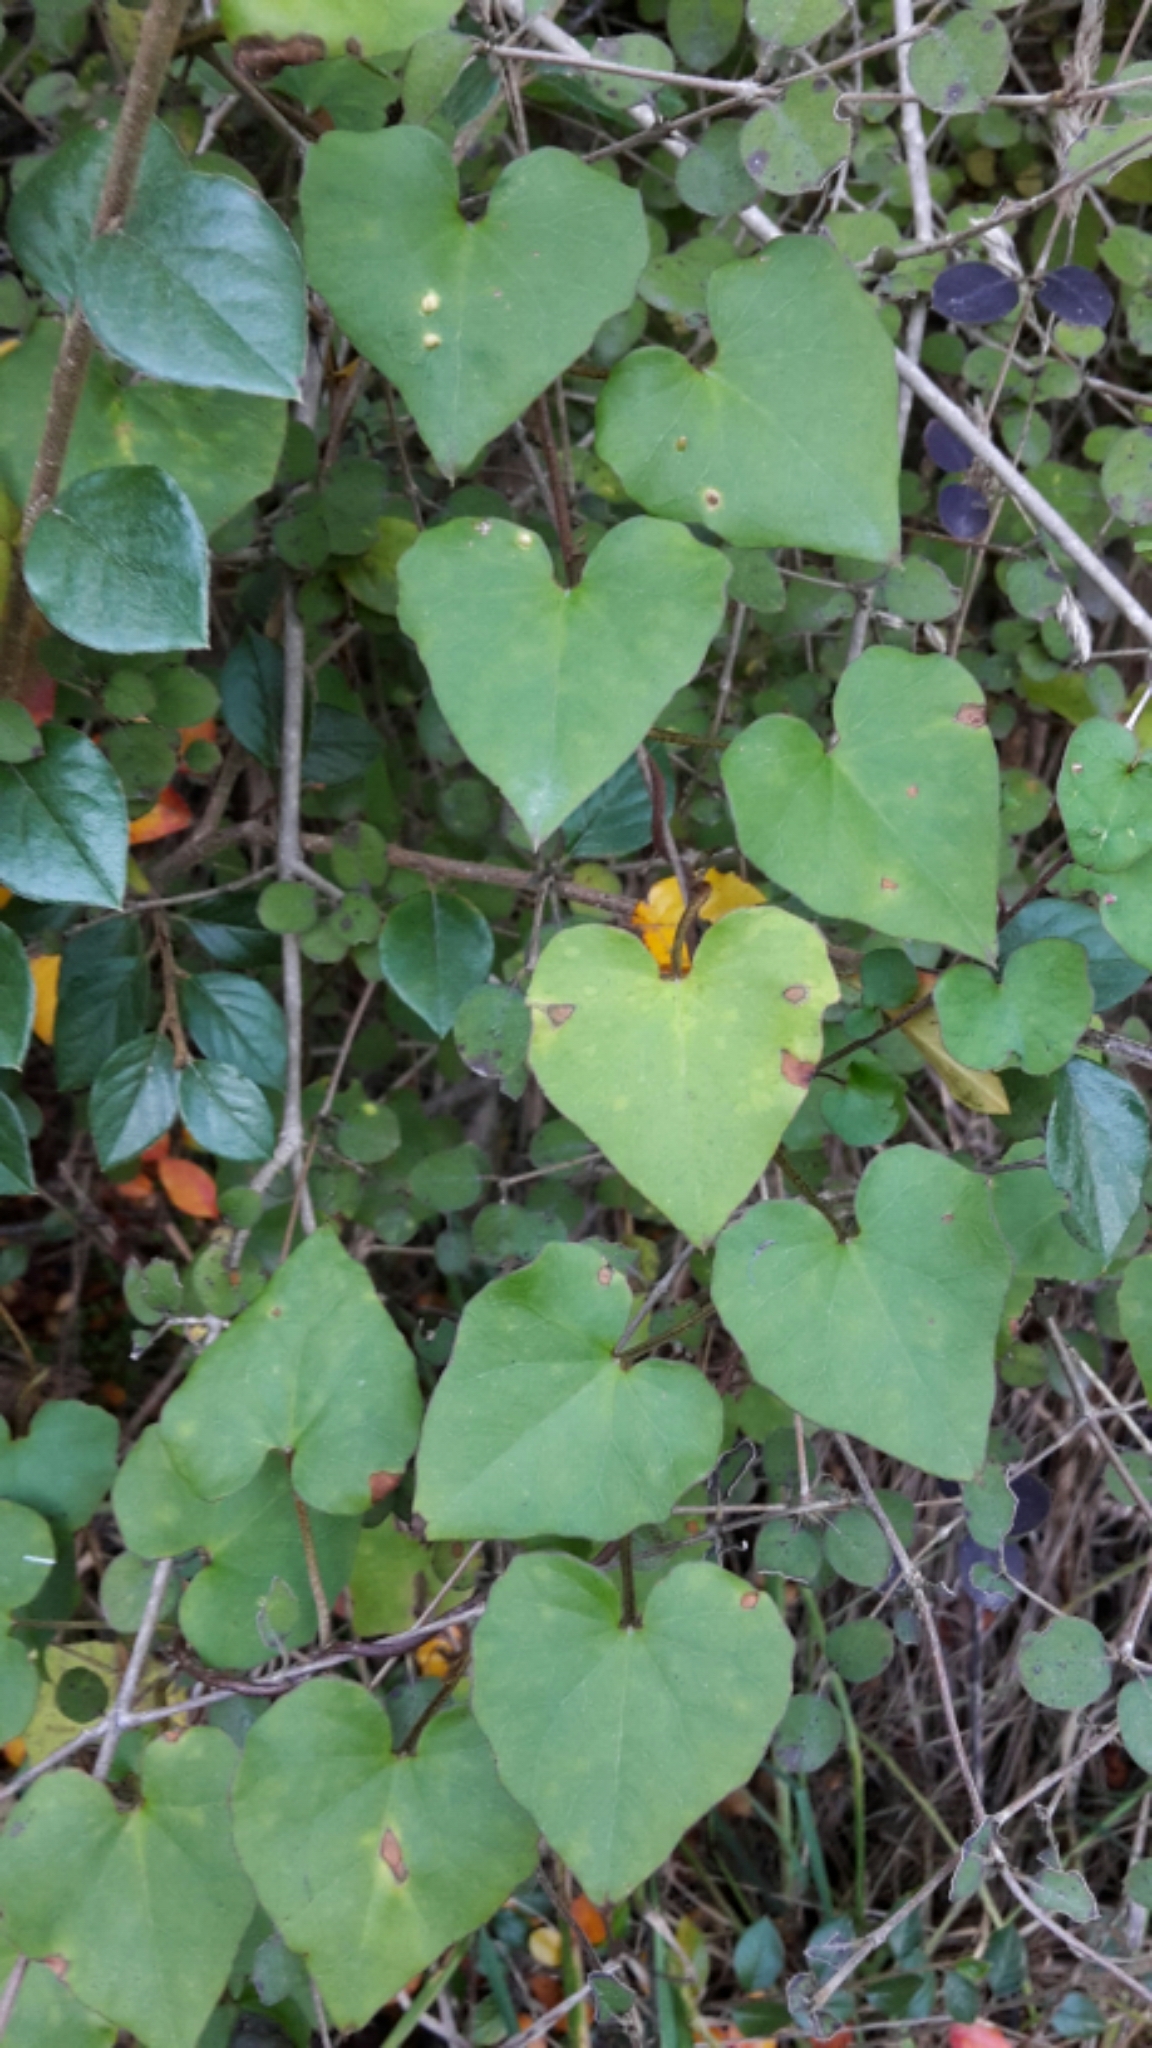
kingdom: Plantae
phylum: Tracheophyta
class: Magnoliopsida
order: Solanales
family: Convolvulaceae
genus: Calystegia
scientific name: Calystegia tuguriorum
